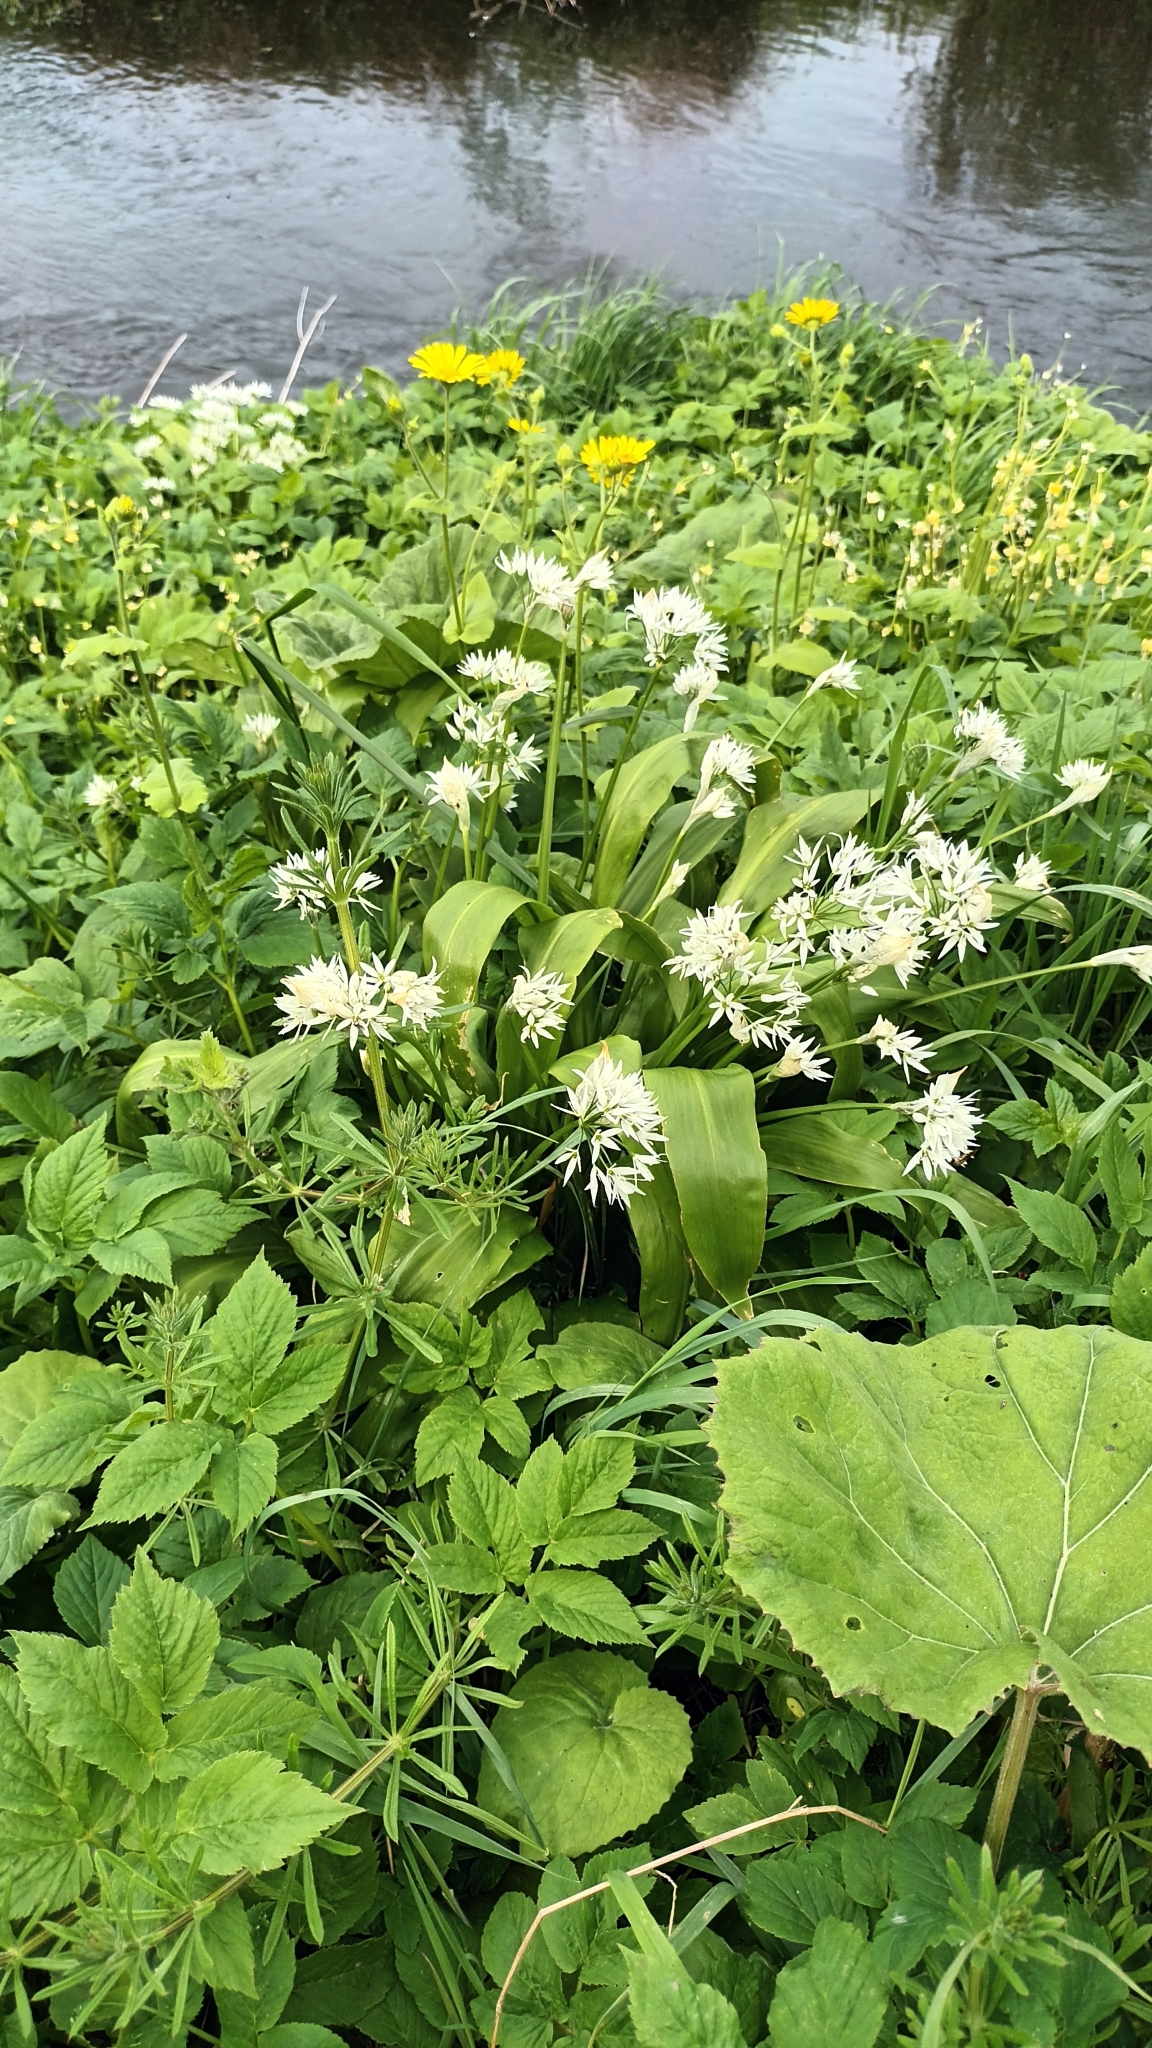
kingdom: Plantae
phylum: Tracheophyta
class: Liliopsida
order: Asparagales
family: Amaryllidaceae
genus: Allium
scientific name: Allium ursinum
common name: Ramsons
